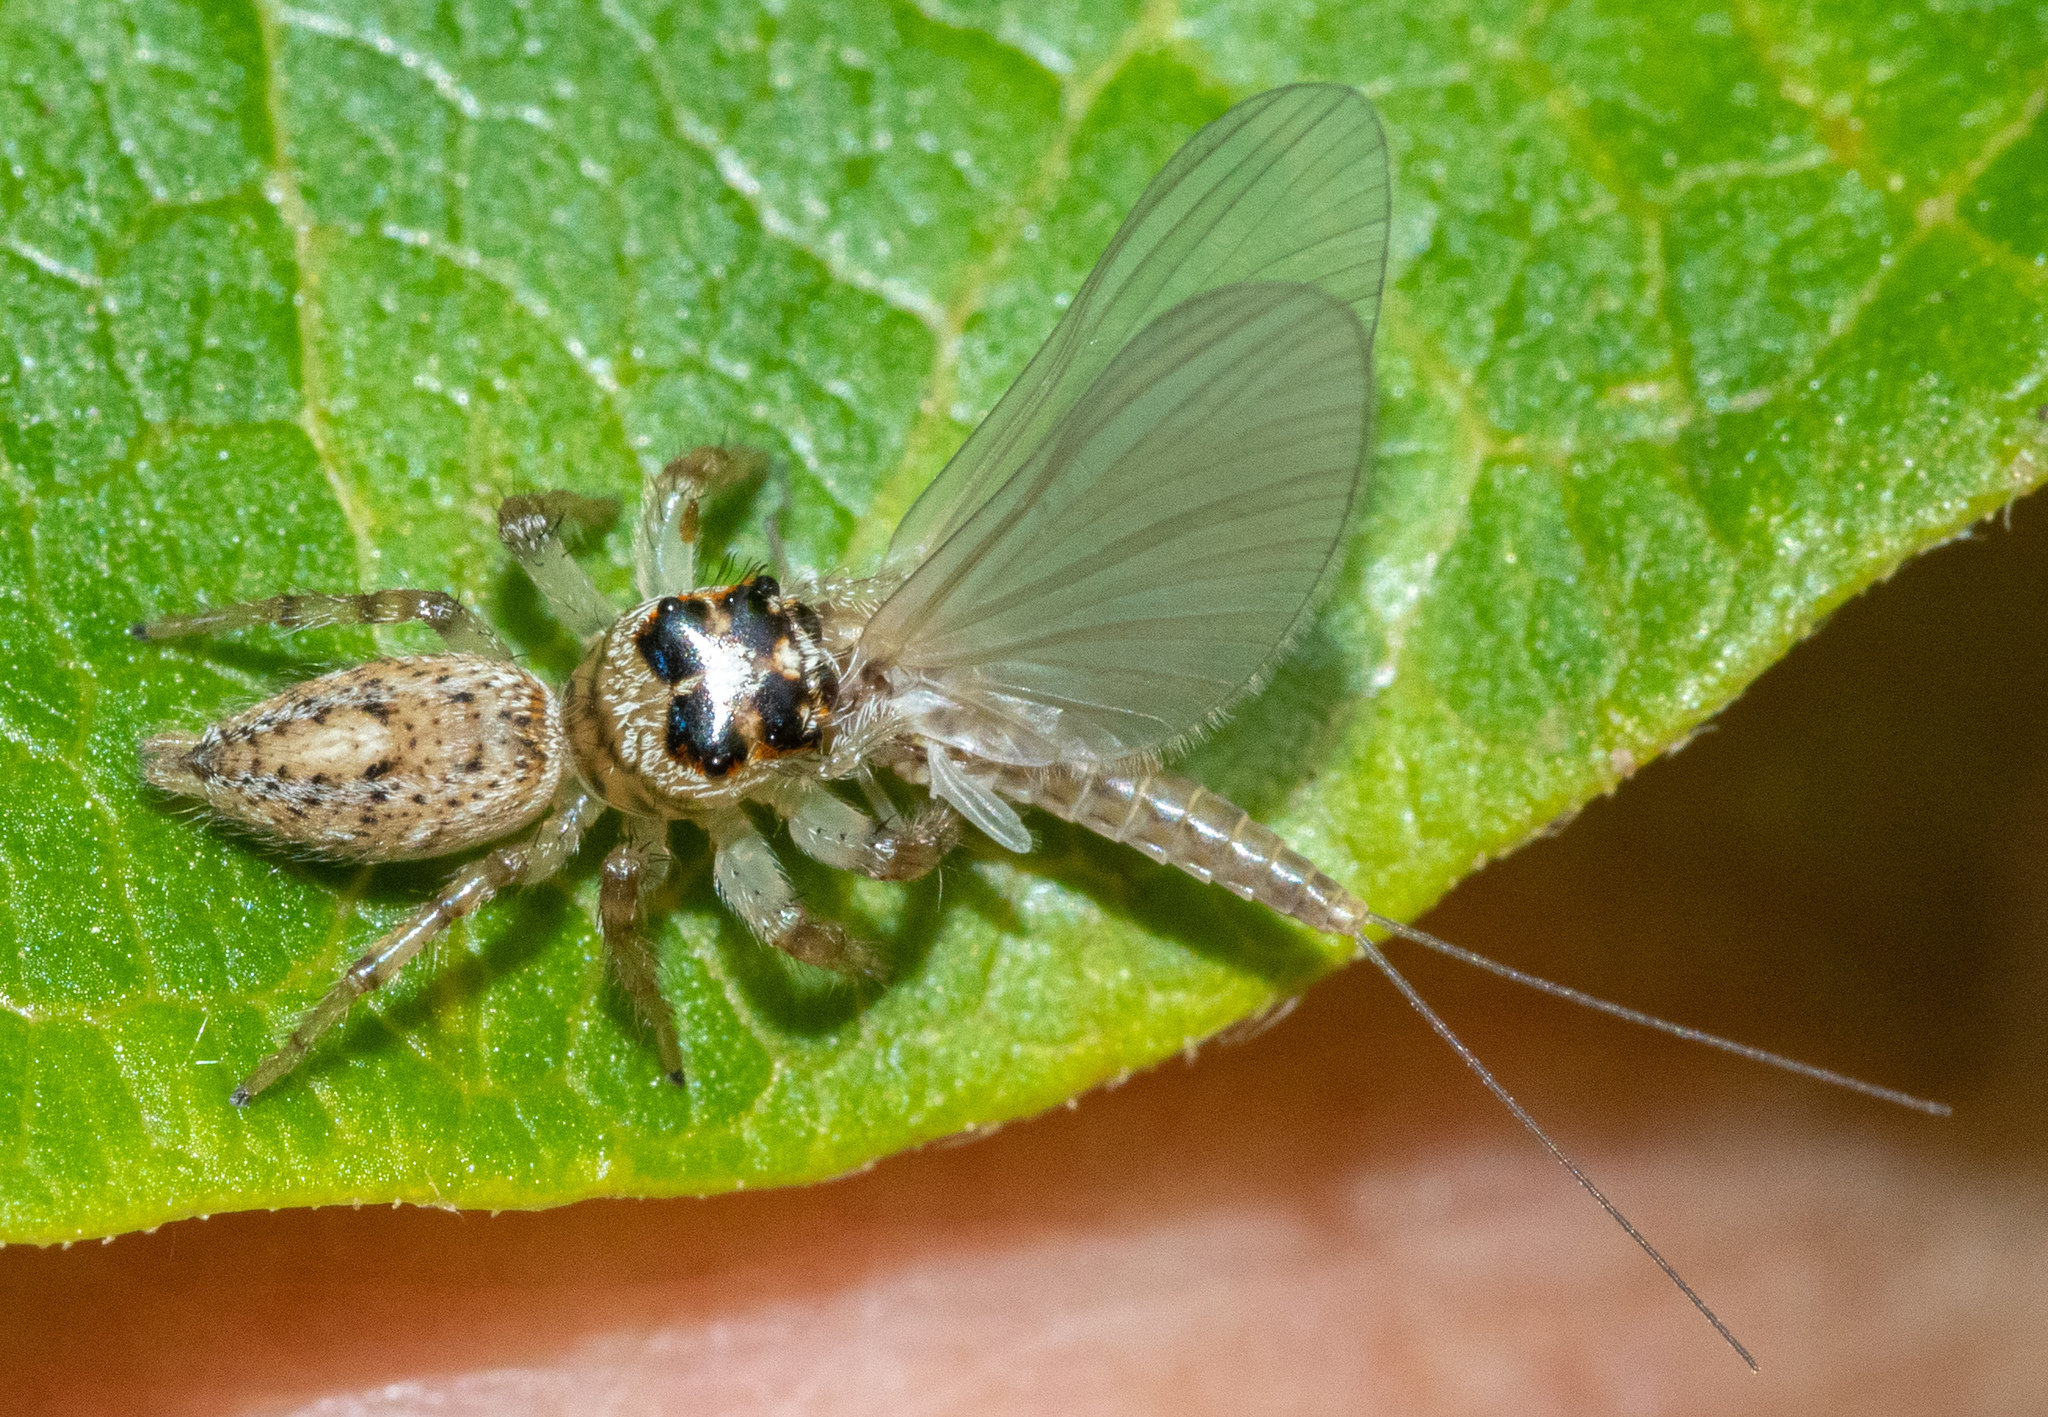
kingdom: Animalia
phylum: Arthropoda
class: Arachnida
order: Araneae
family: Salticidae
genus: Colonus
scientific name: Colonus hesperus
